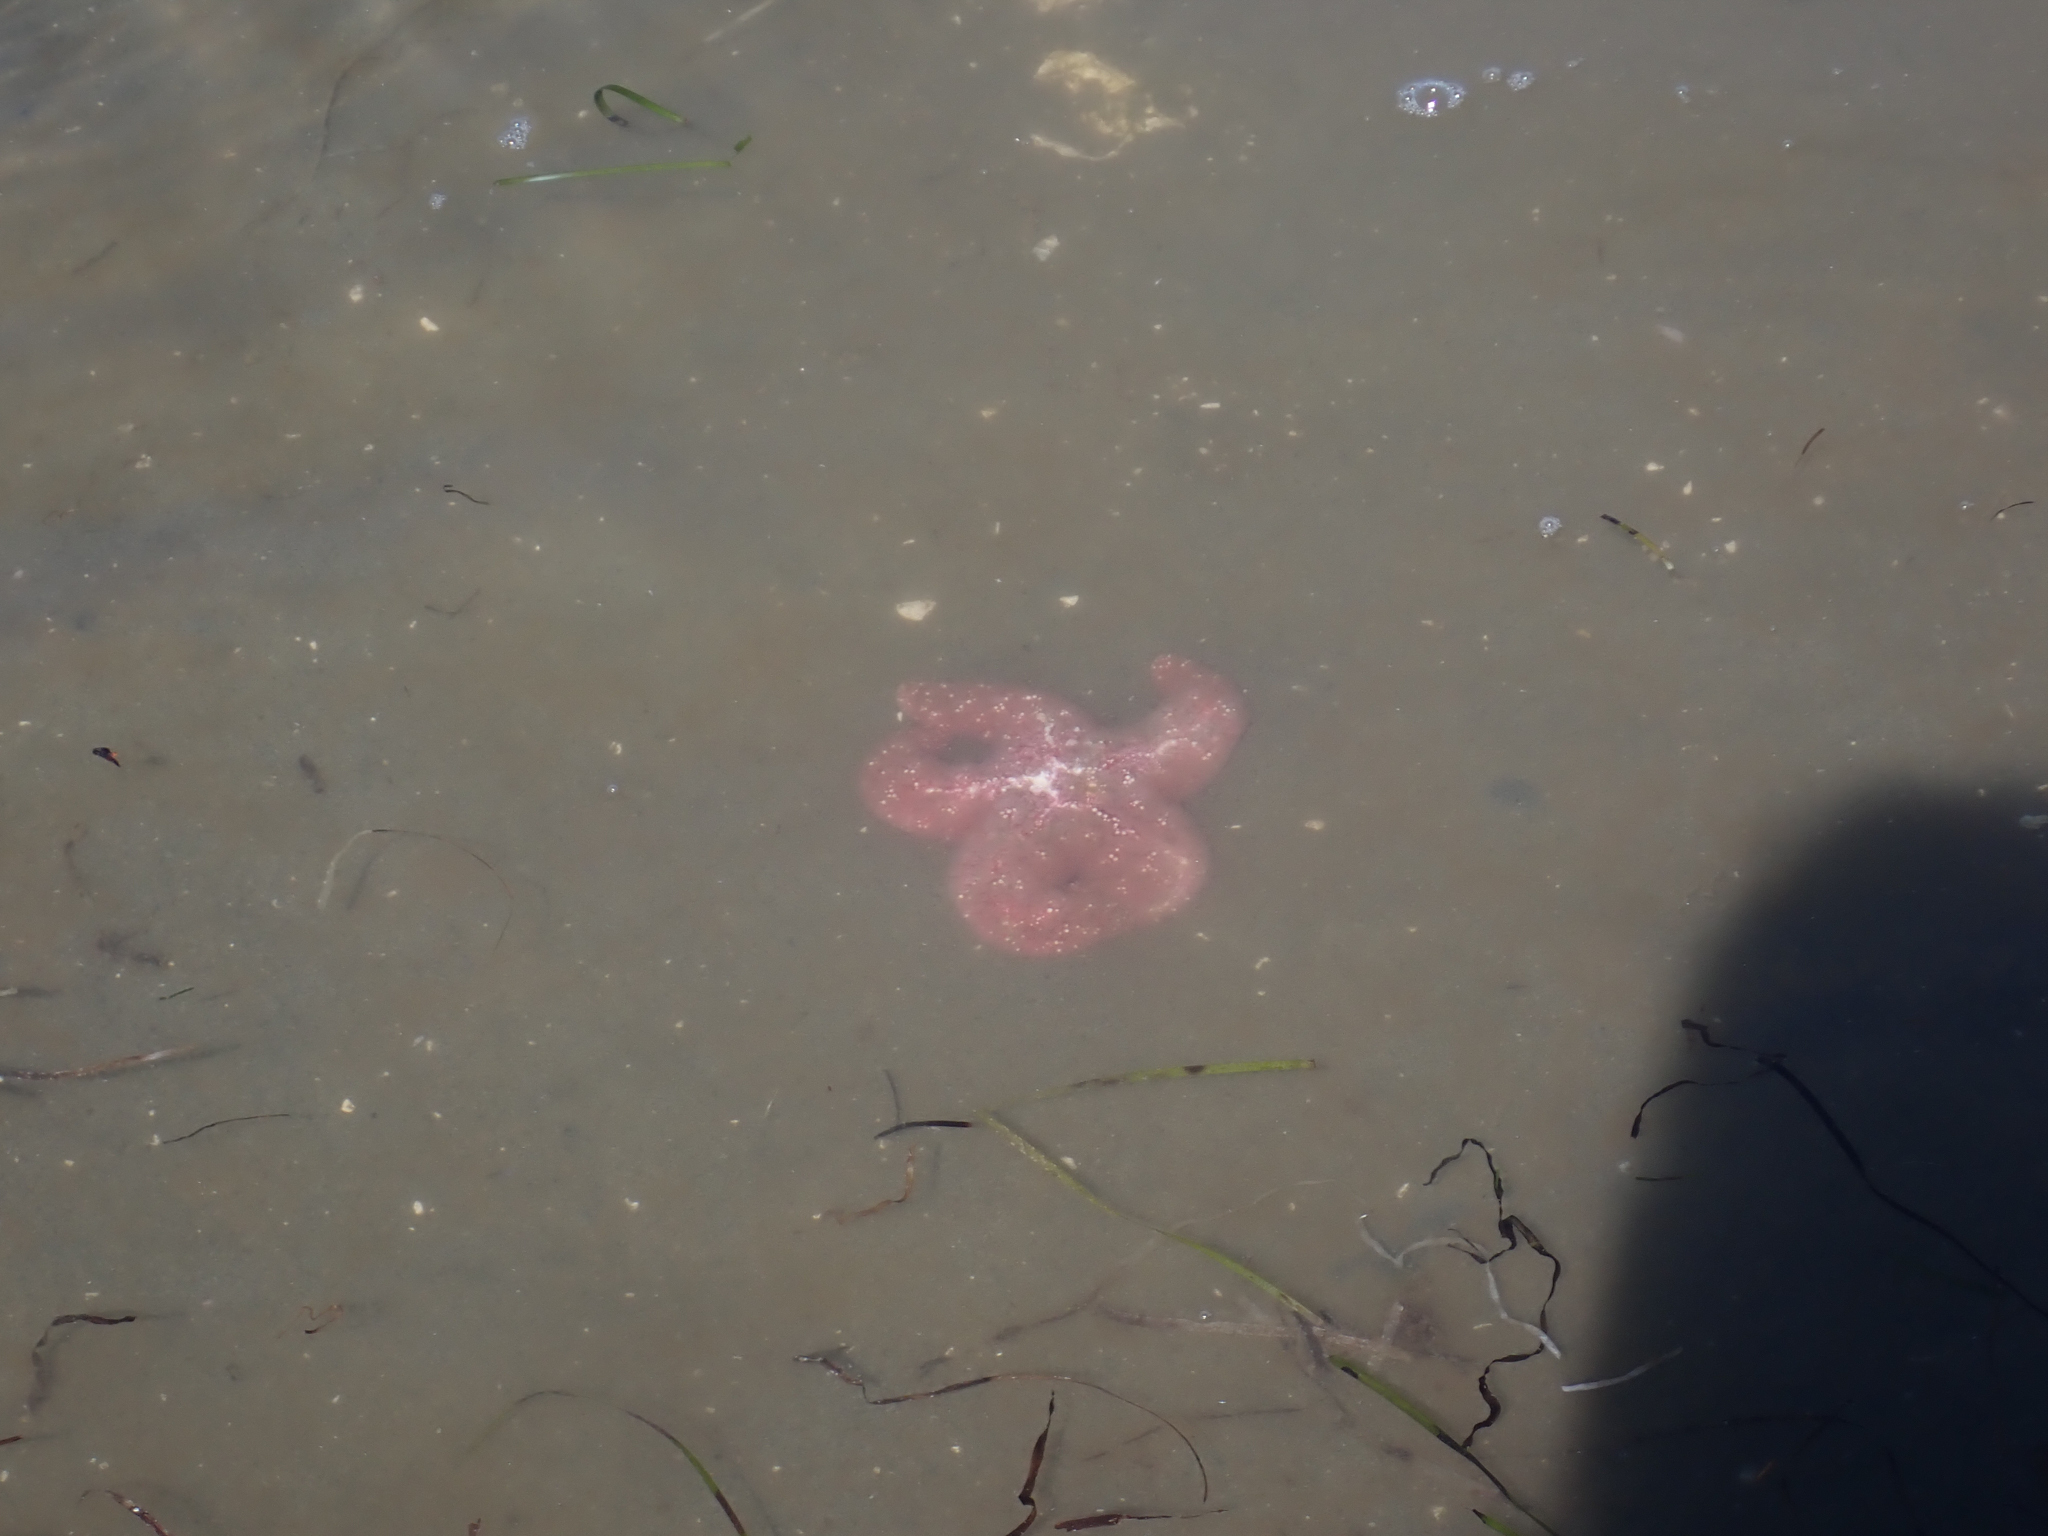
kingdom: Animalia
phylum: Echinodermata
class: Asteroidea
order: Forcipulatida
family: Asteriidae
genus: Pisaster
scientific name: Pisaster ochraceus
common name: Ochre stars
